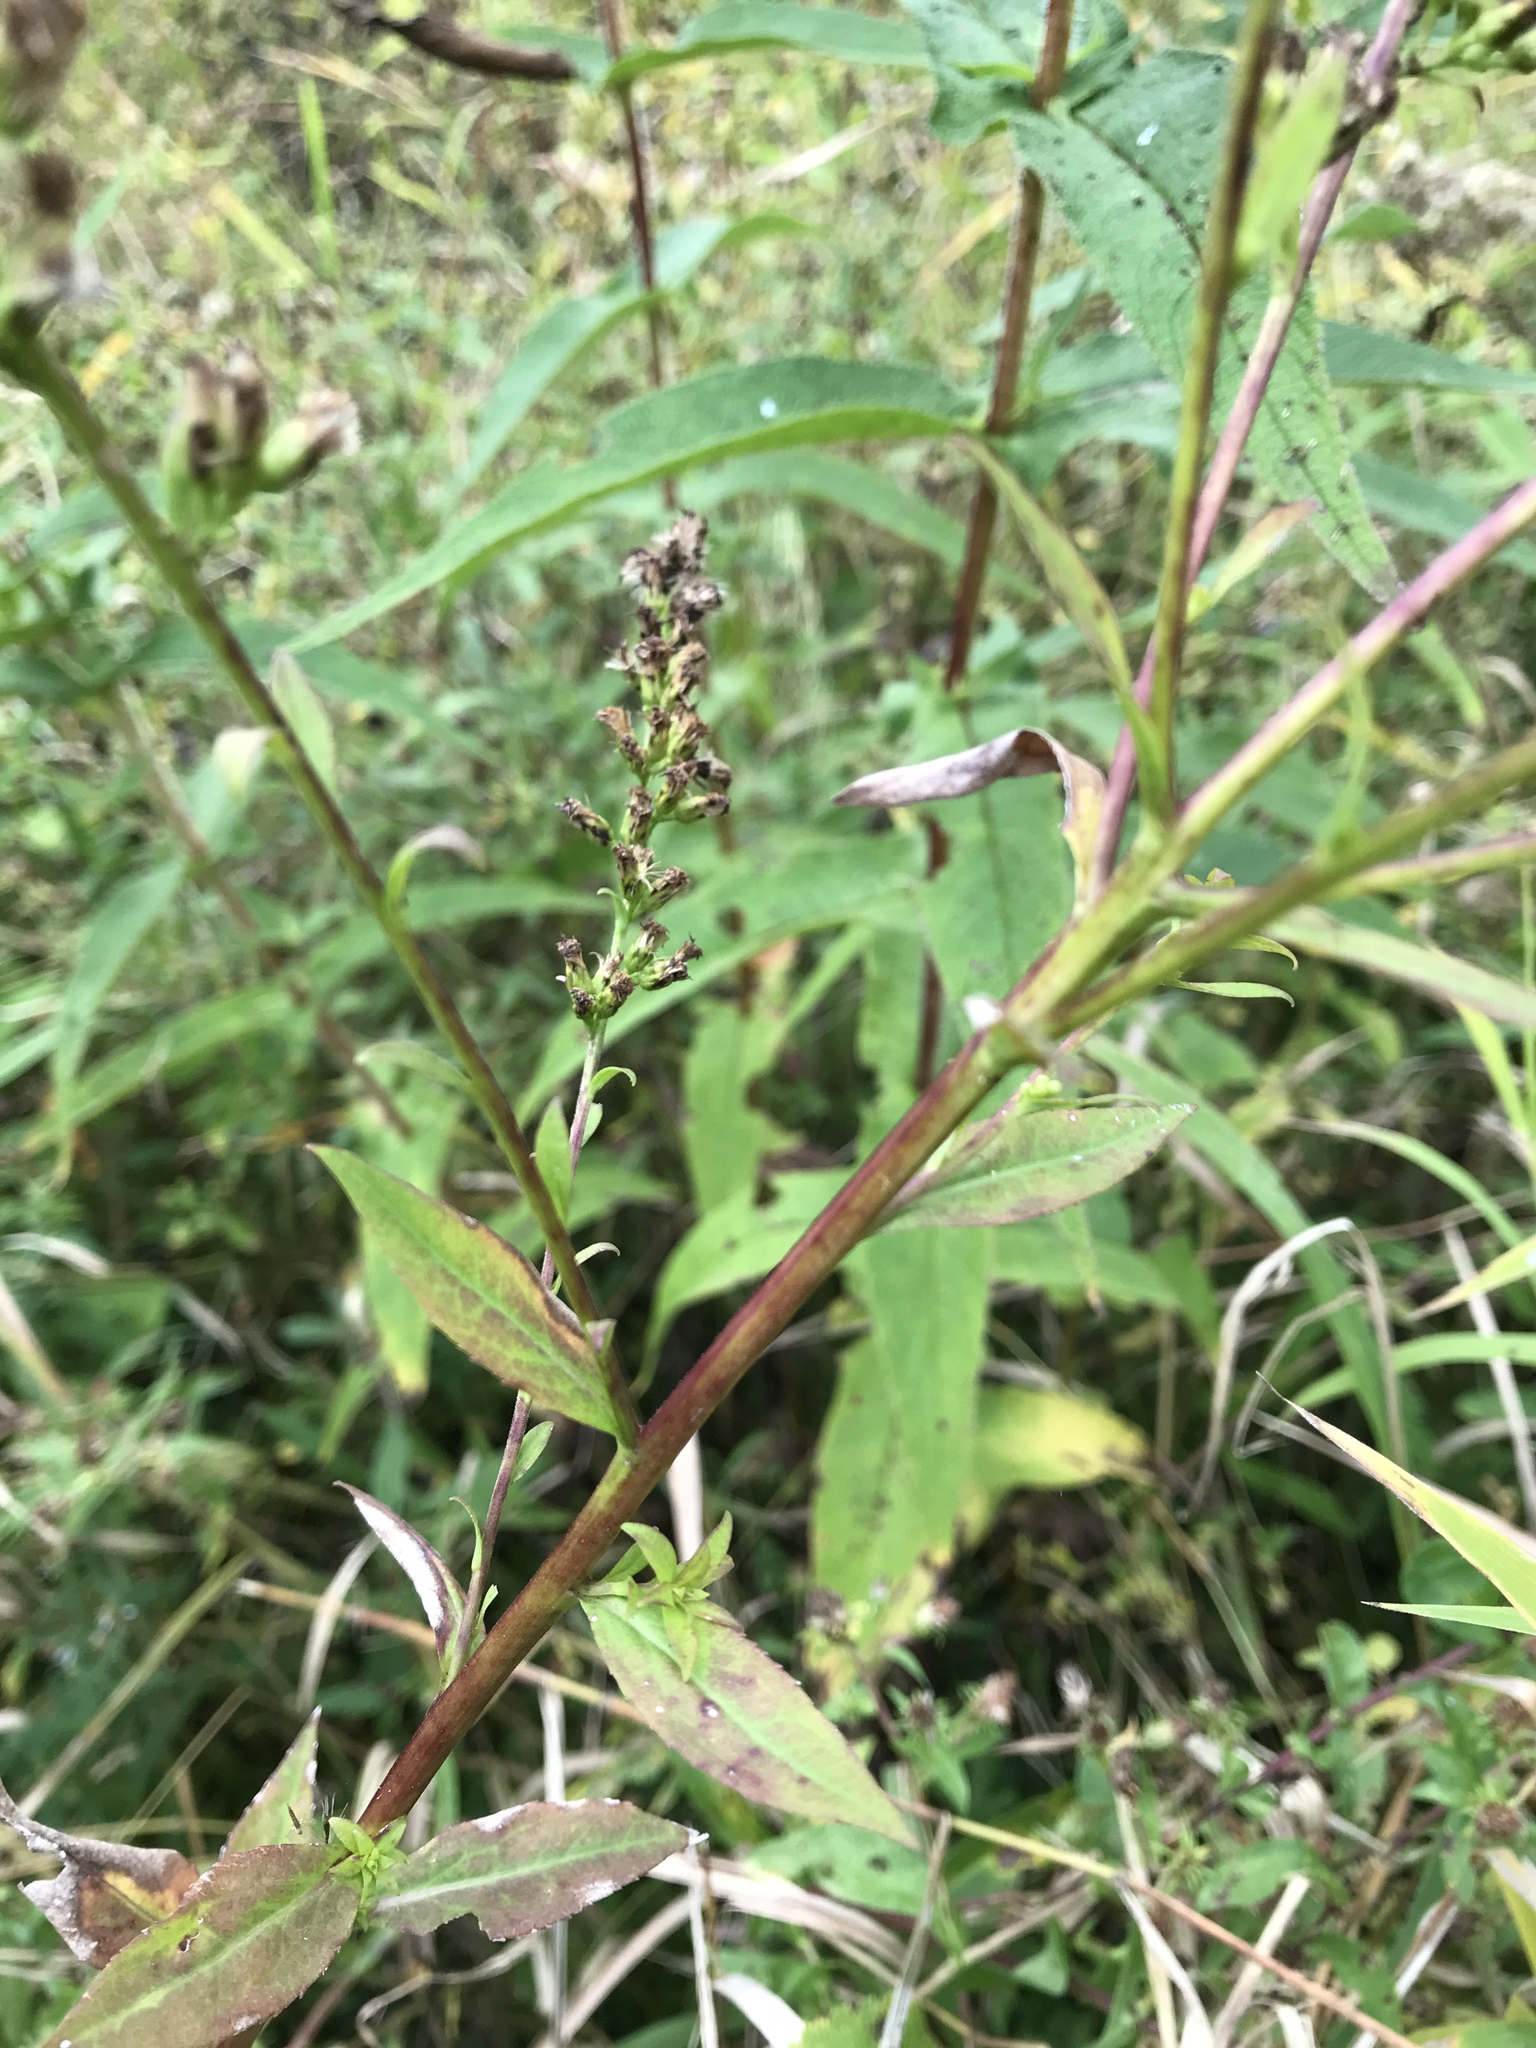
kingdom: Plantae
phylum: Tracheophyta
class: Magnoliopsida
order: Asterales
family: Asteraceae
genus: Solidago
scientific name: Solidago patula
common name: Rough-leaf goldenrod
